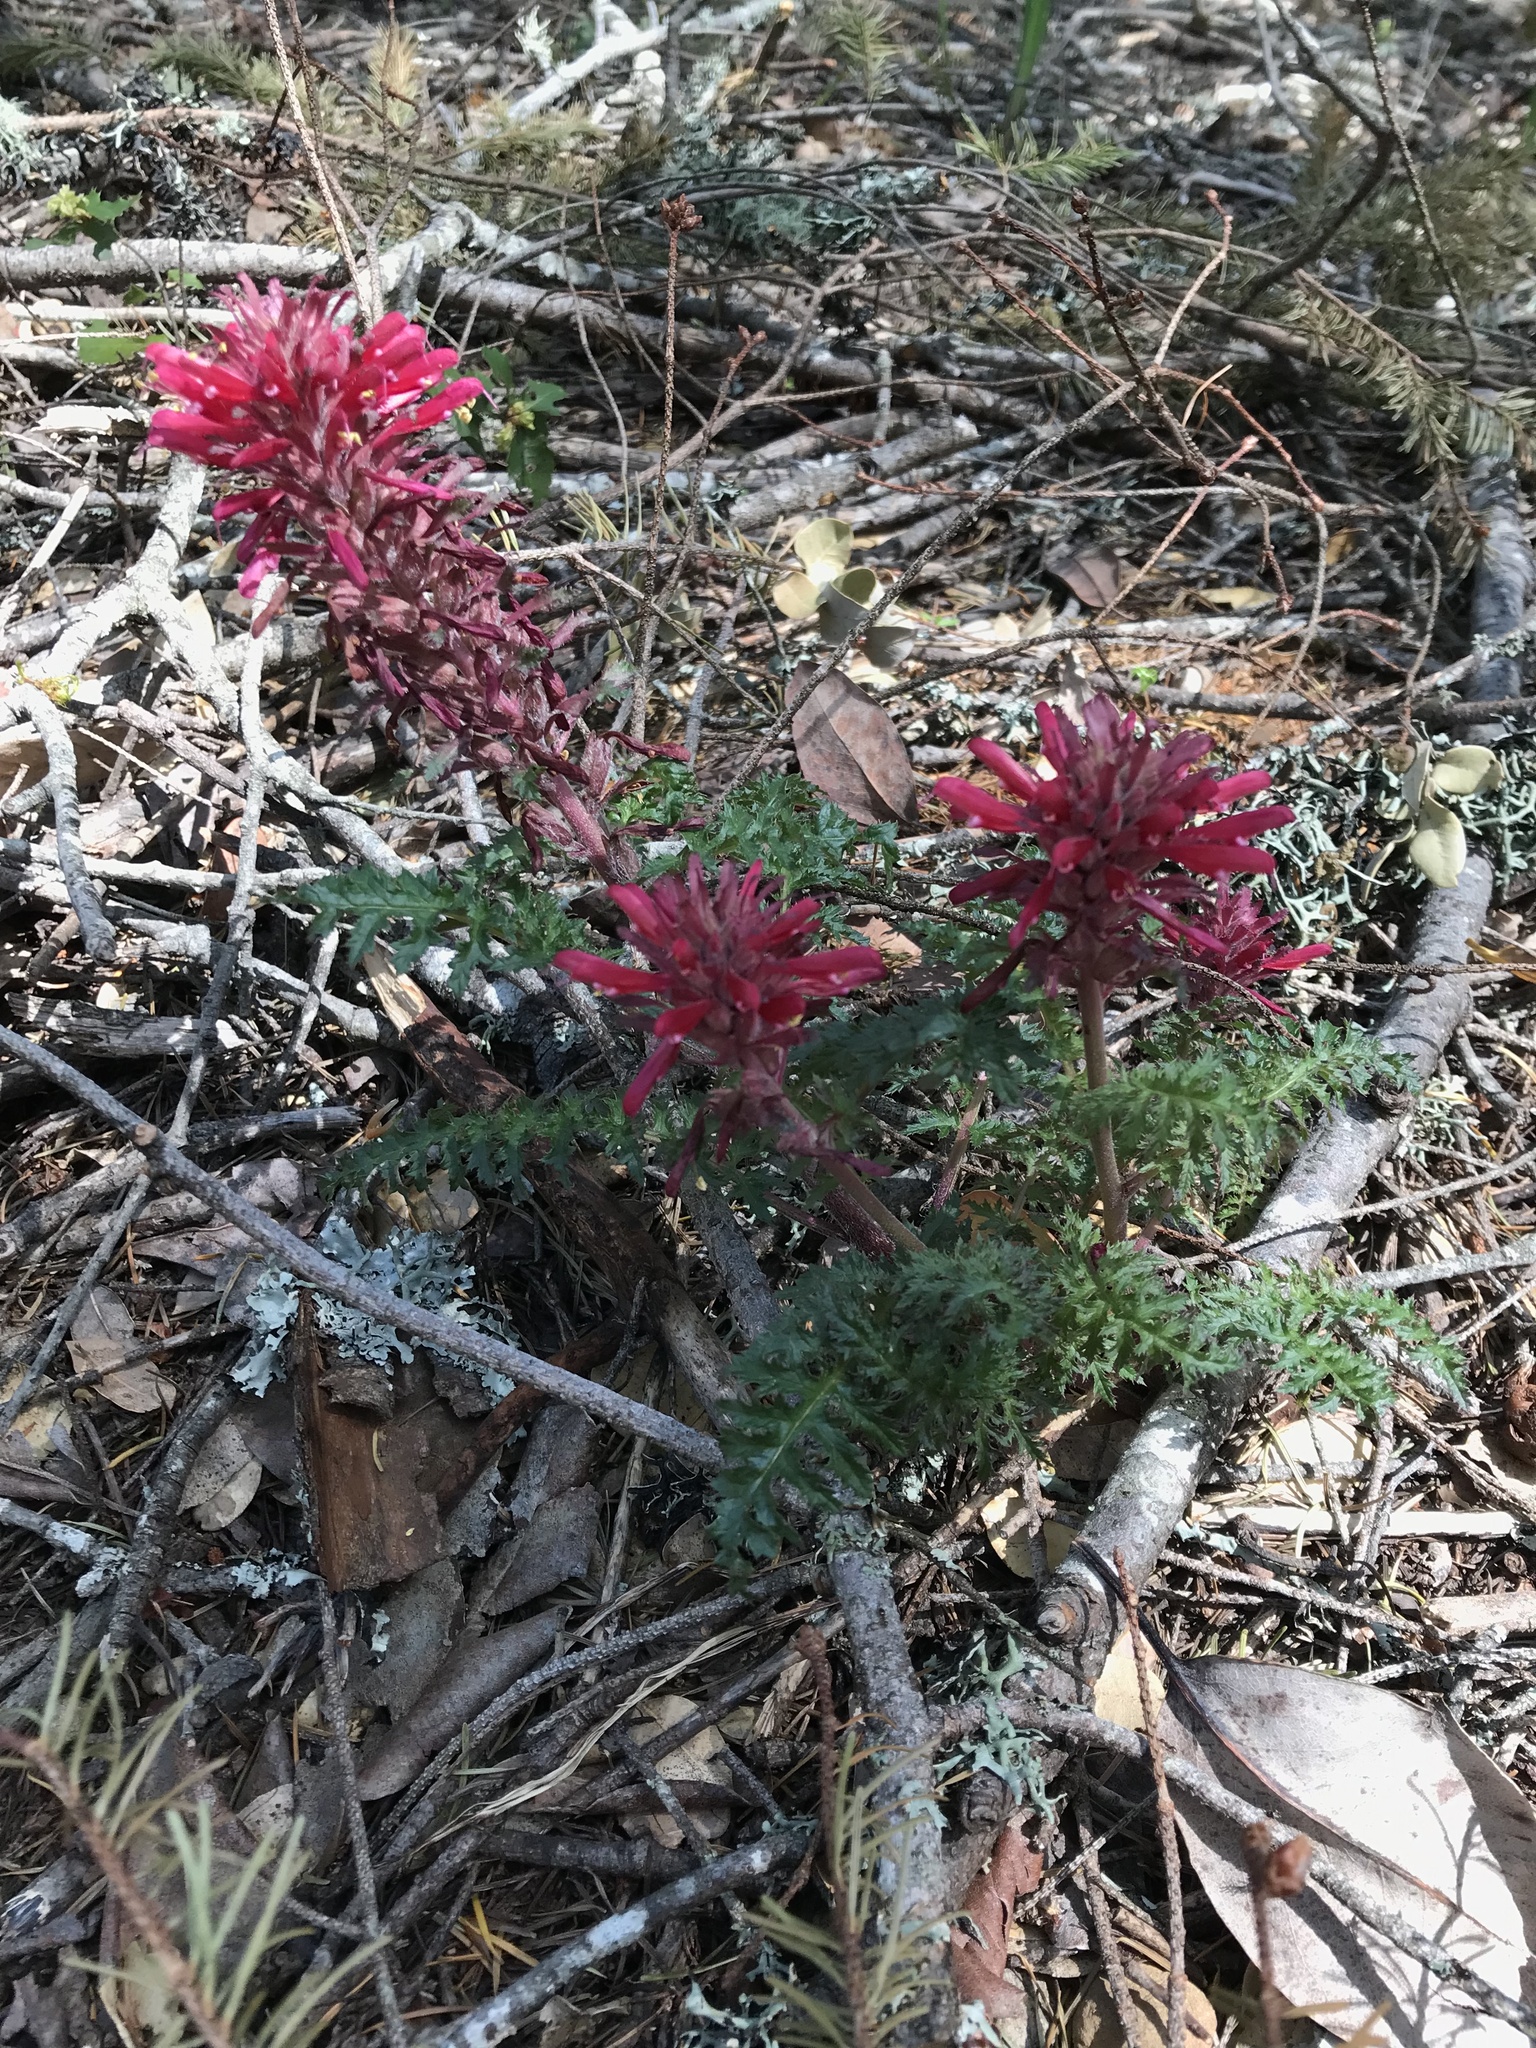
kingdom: Plantae
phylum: Tracheophyta
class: Magnoliopsida
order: Lamiales
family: Orobanchaceae
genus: Pedicularis
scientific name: Pedicularis densiflora
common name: Indian warrior
